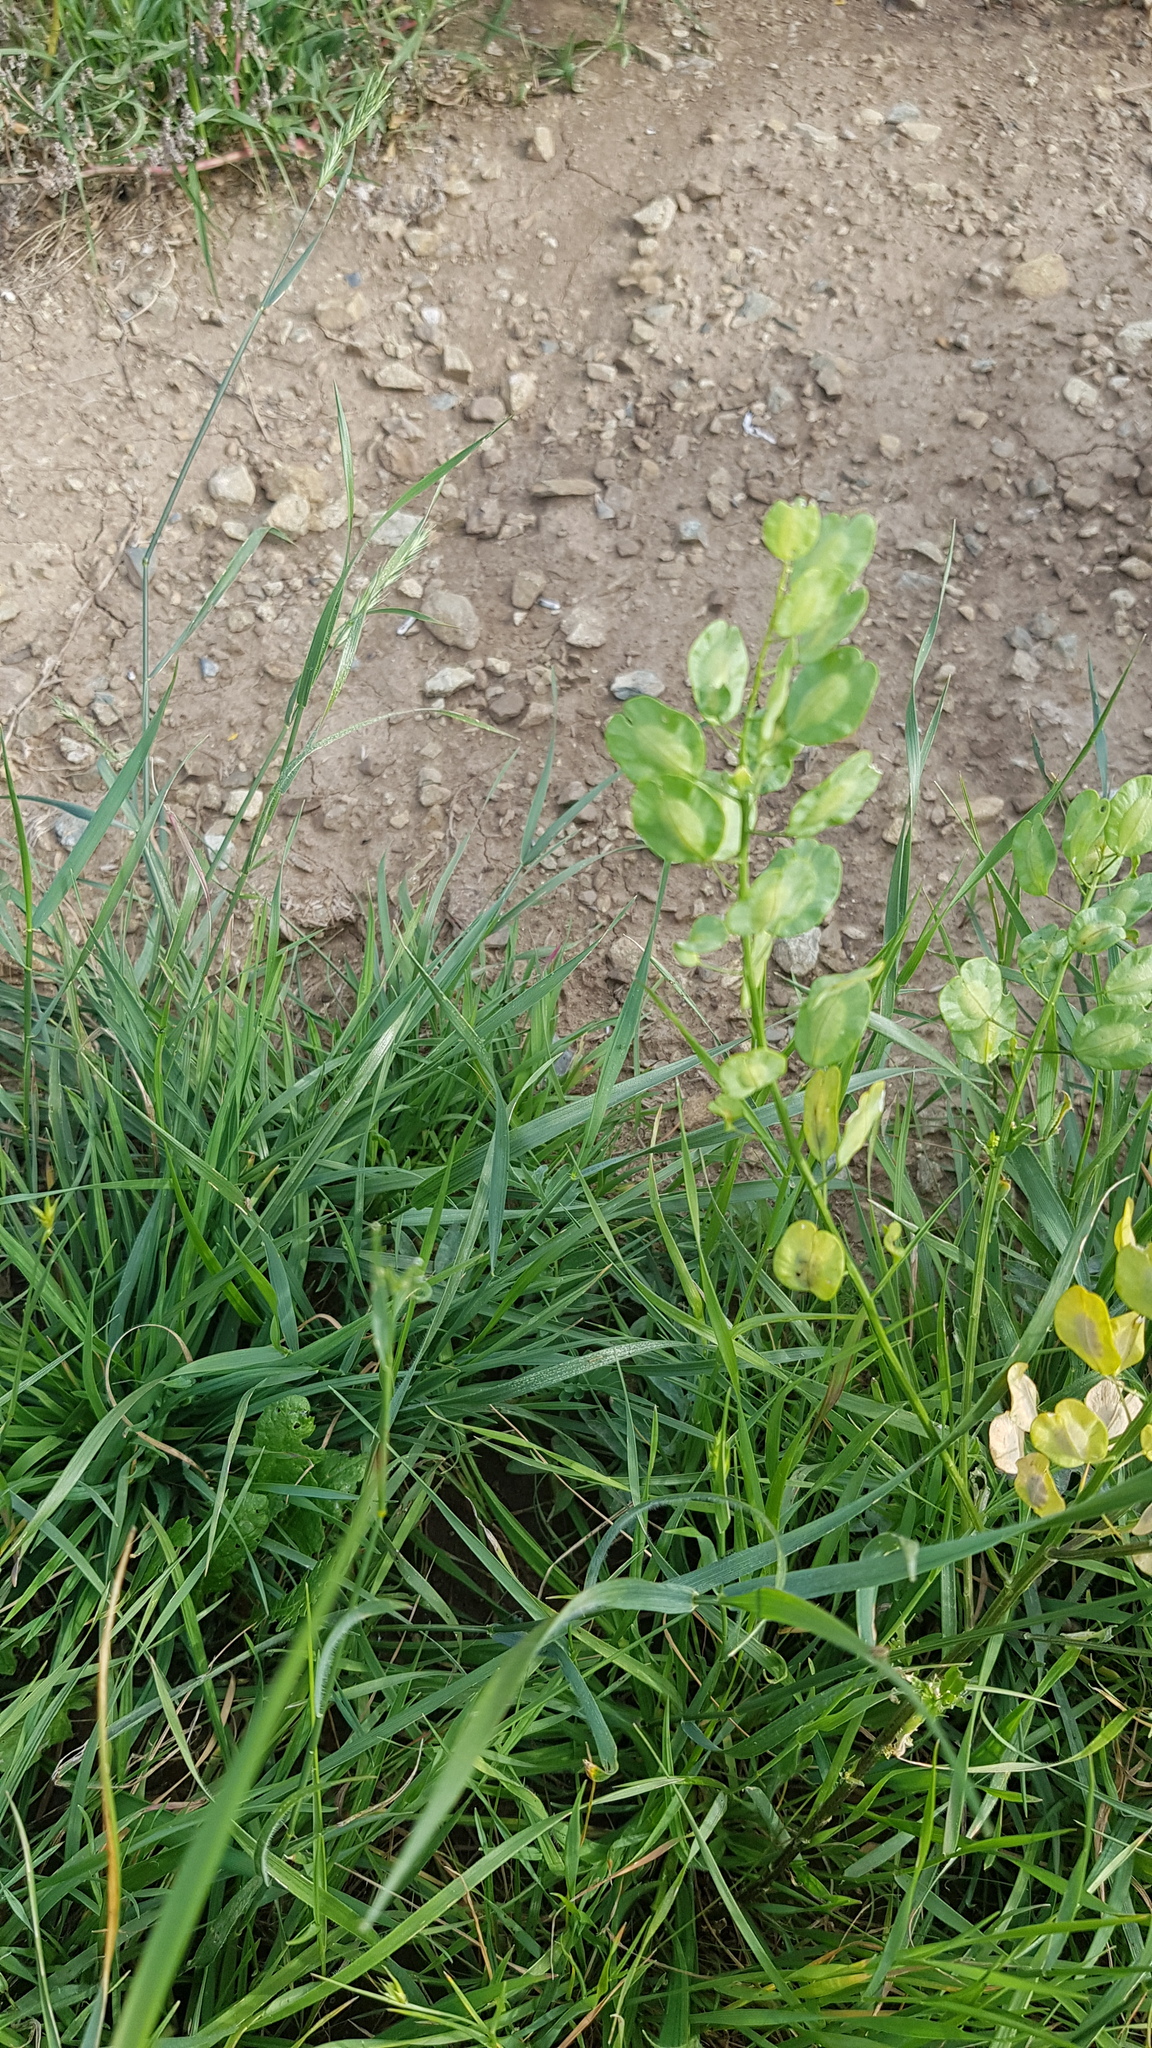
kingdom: Plantae
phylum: Tracheophyta
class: Magnoliopsida
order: Brassicales
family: Brassicaceae
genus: Thlaspi
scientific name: Thlaspi arvense
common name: Field pennycress
